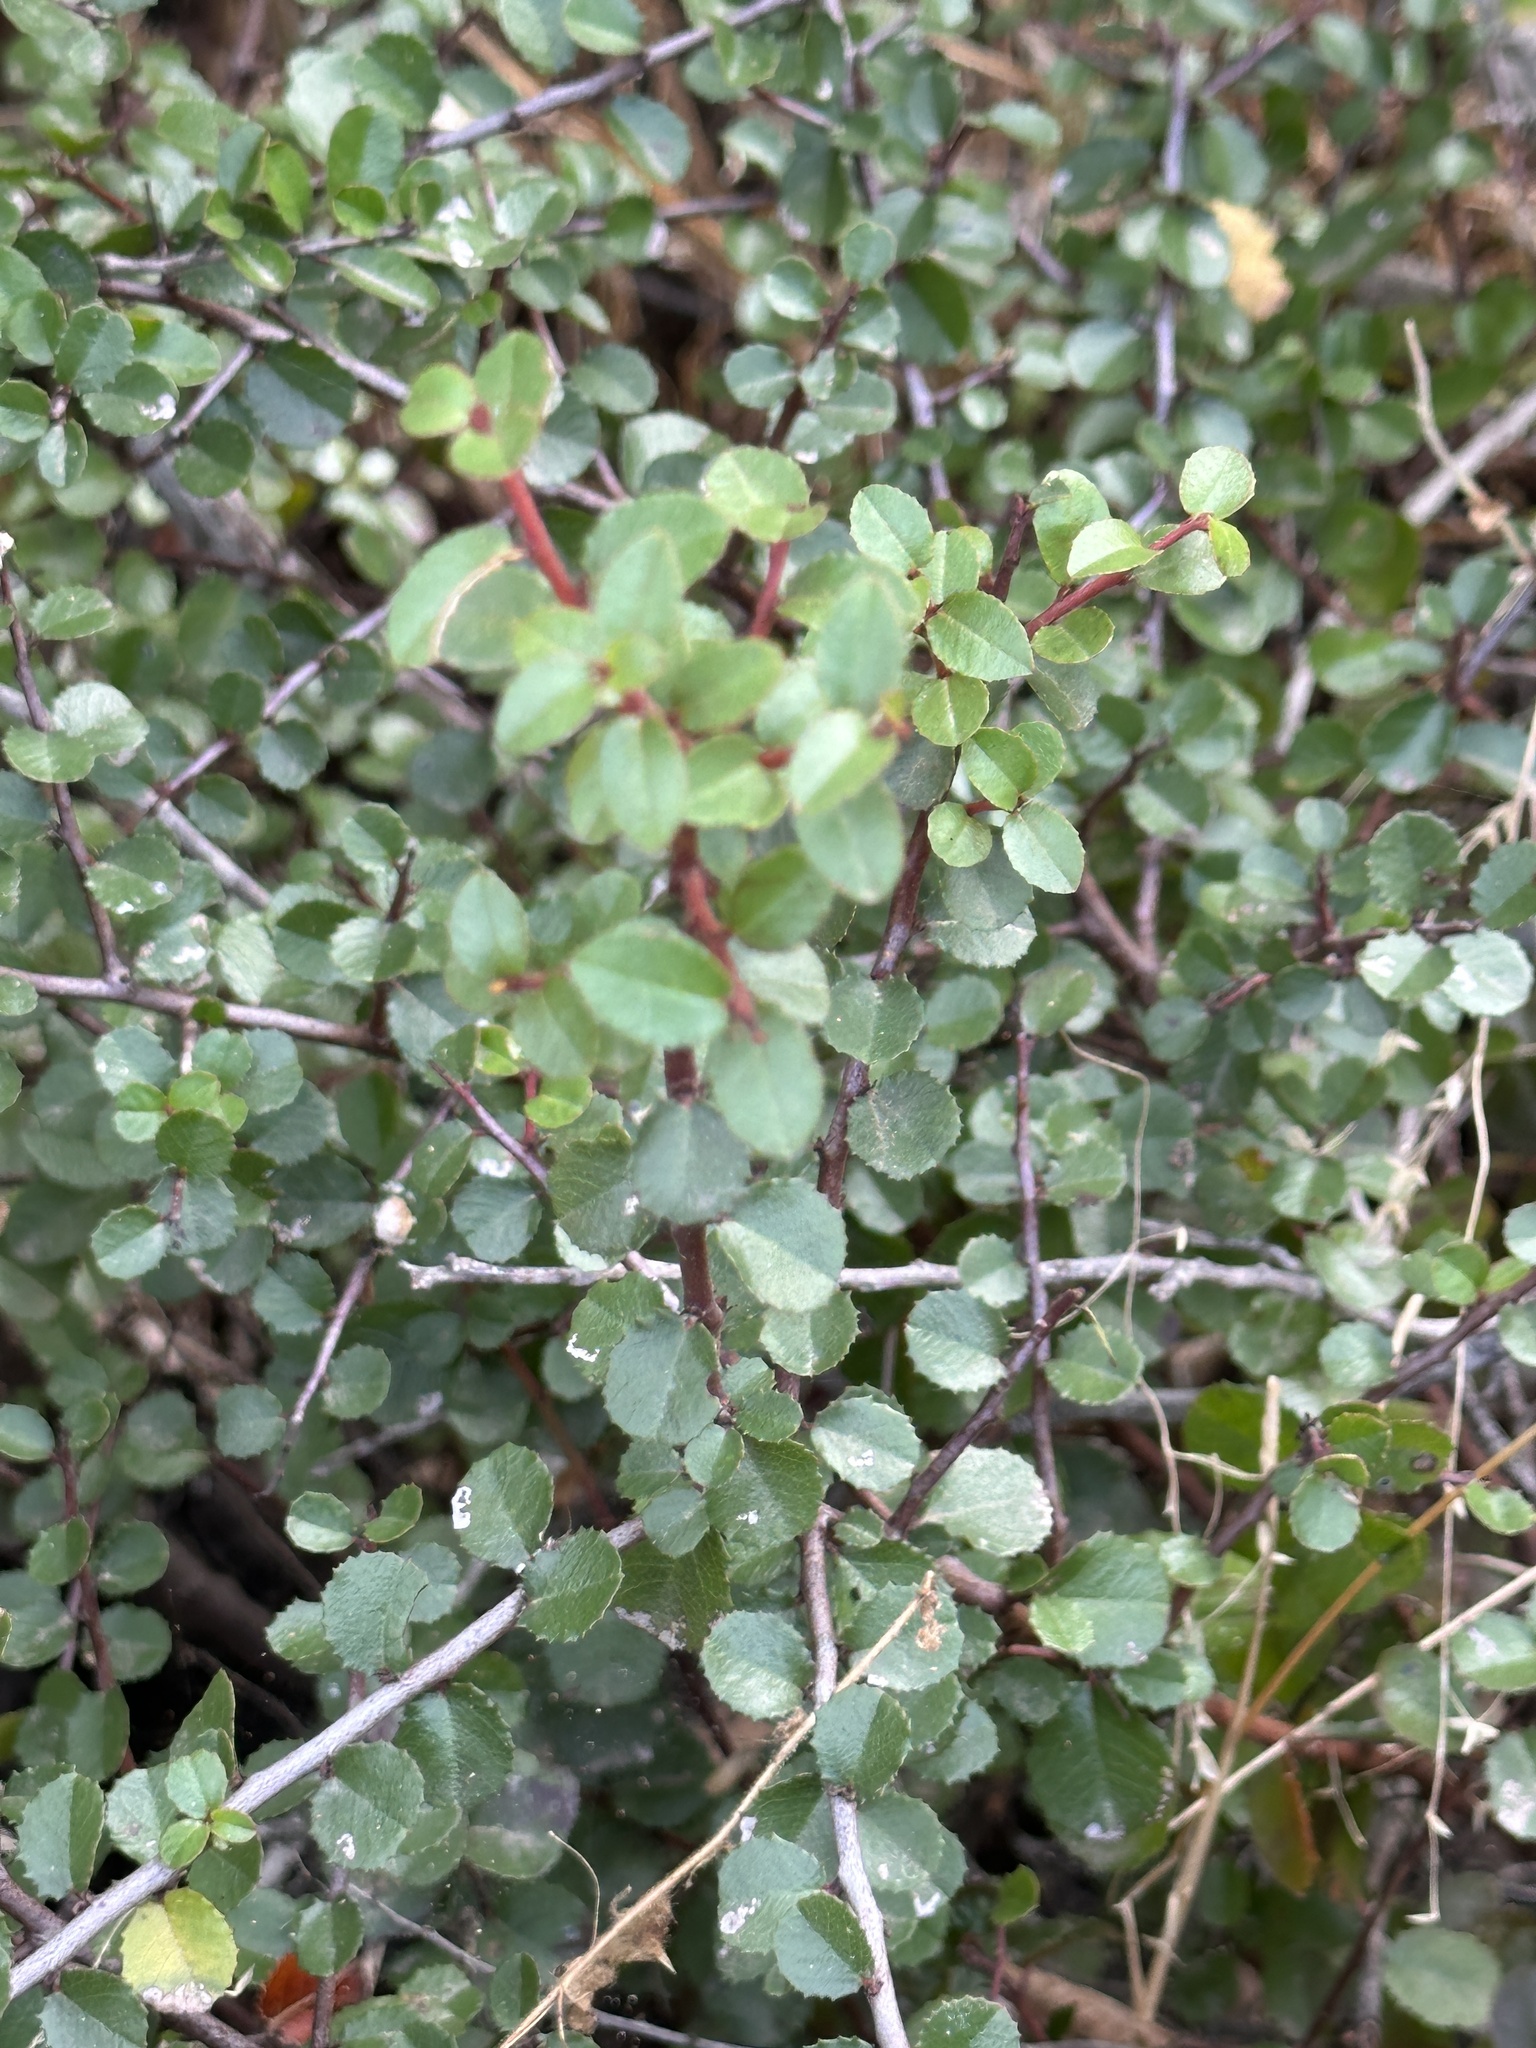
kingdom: Plantae
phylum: Tracheophyta
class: Magnoliopsida
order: Rosales
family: Rhamnaceae
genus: Endotropis
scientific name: Endotropis crocea
